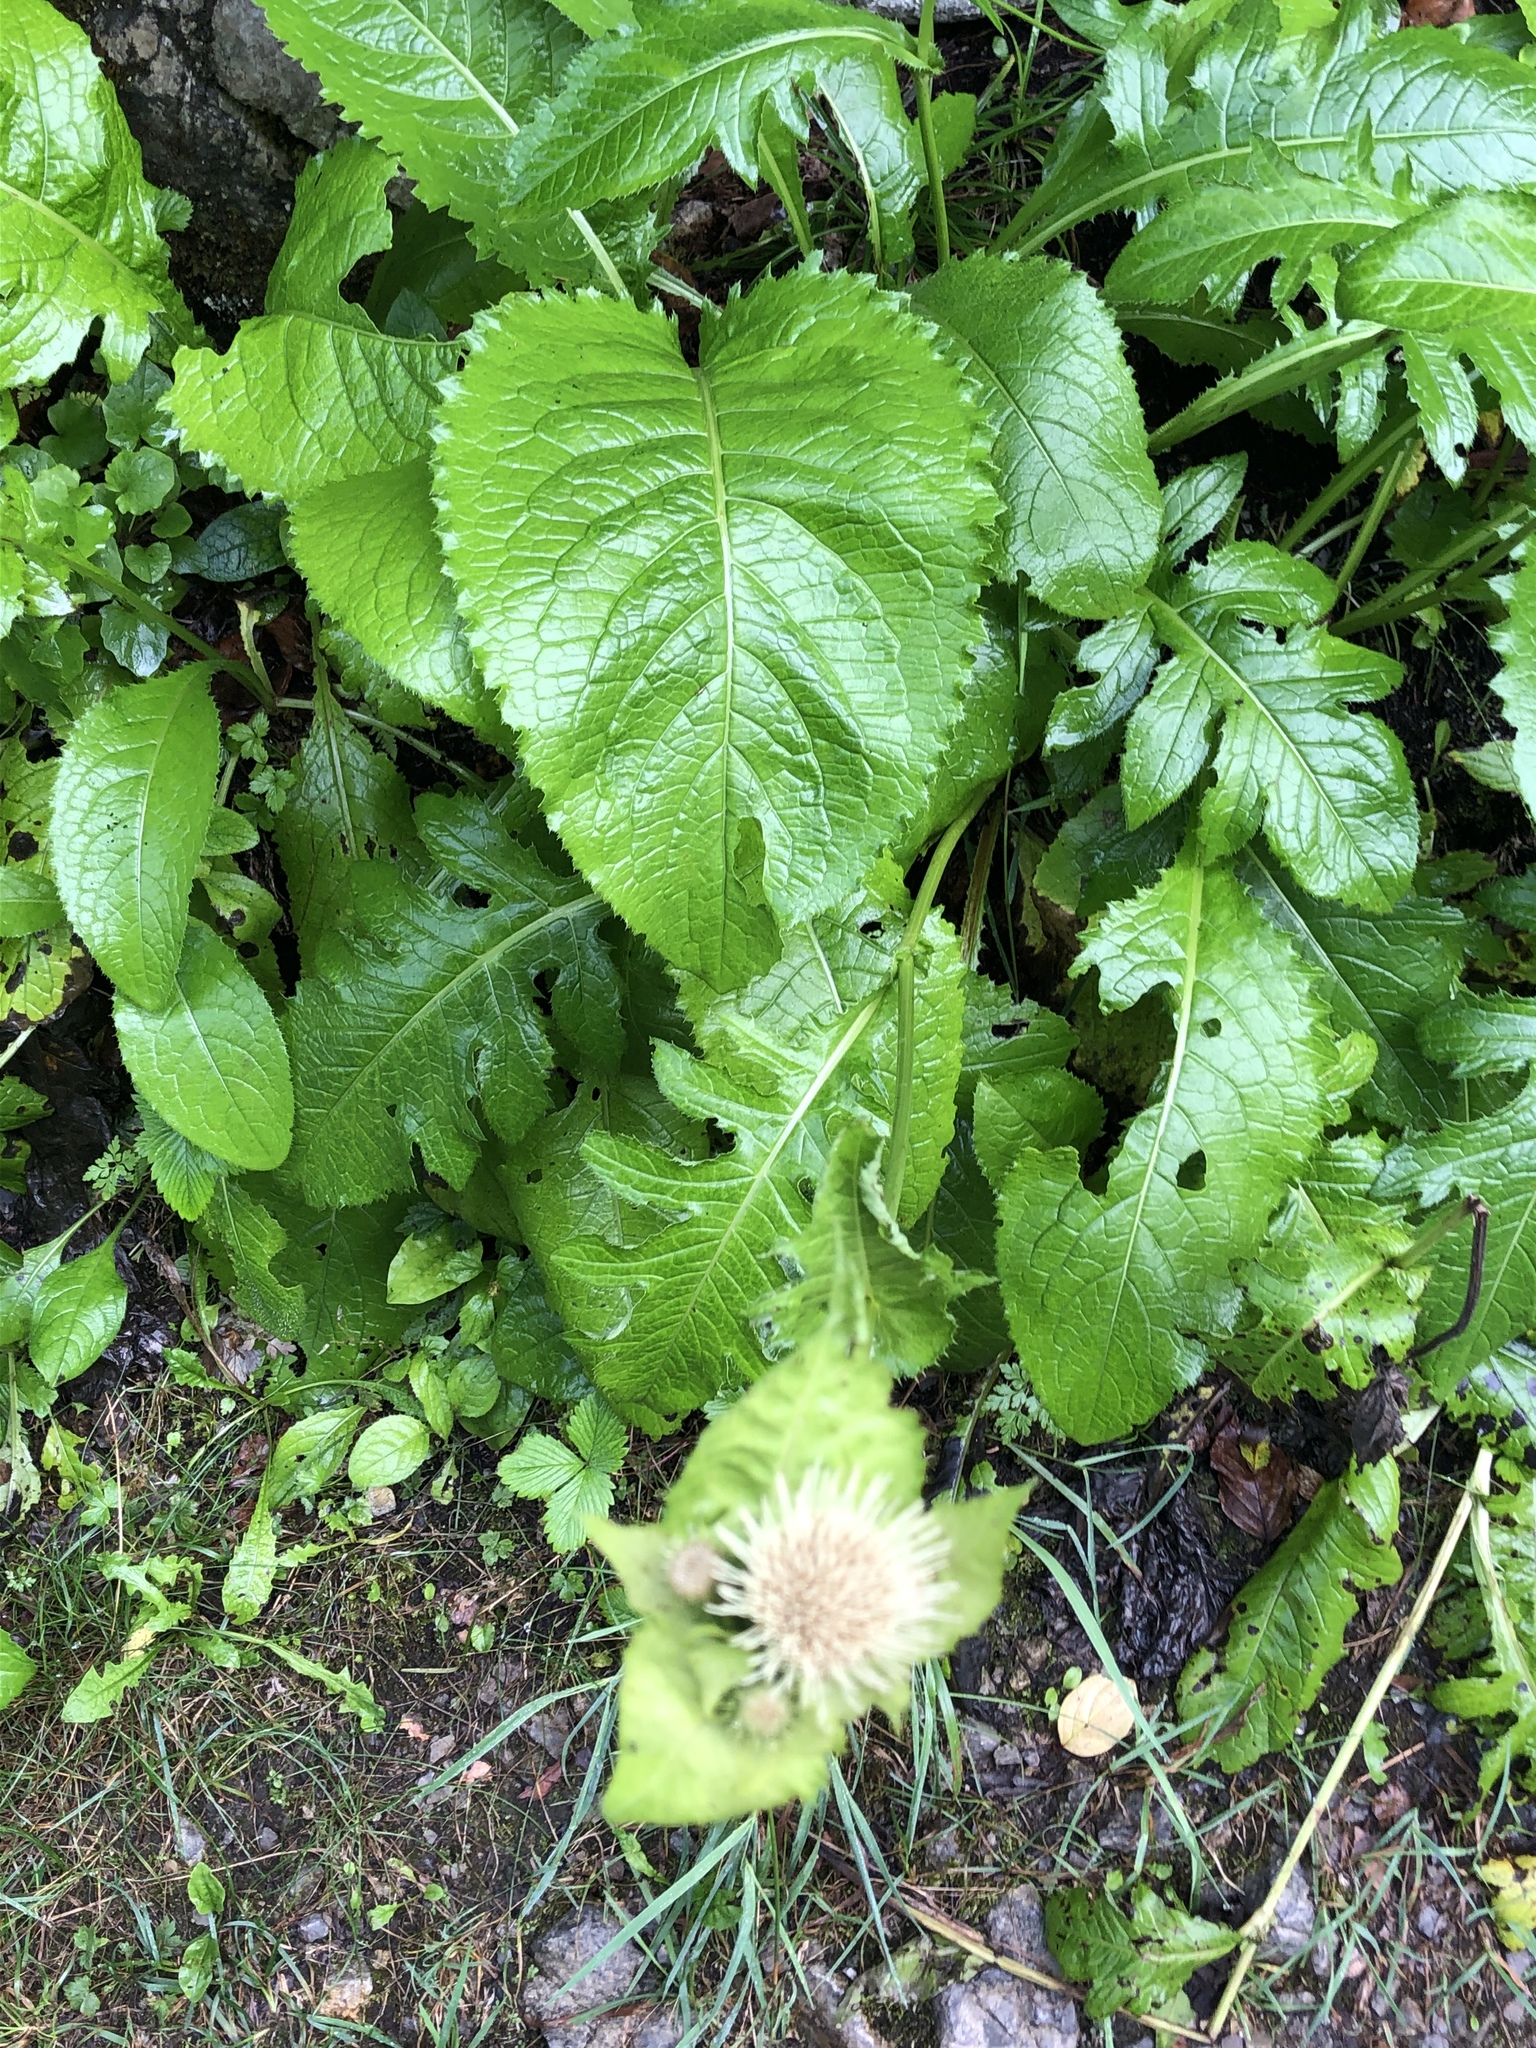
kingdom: Plantae
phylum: Tracheophyta
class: Magnoliopsida
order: Asterales
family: Asteraceae
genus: Cirsium
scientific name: Cirsium oleraceum
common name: Cabbage thistle
